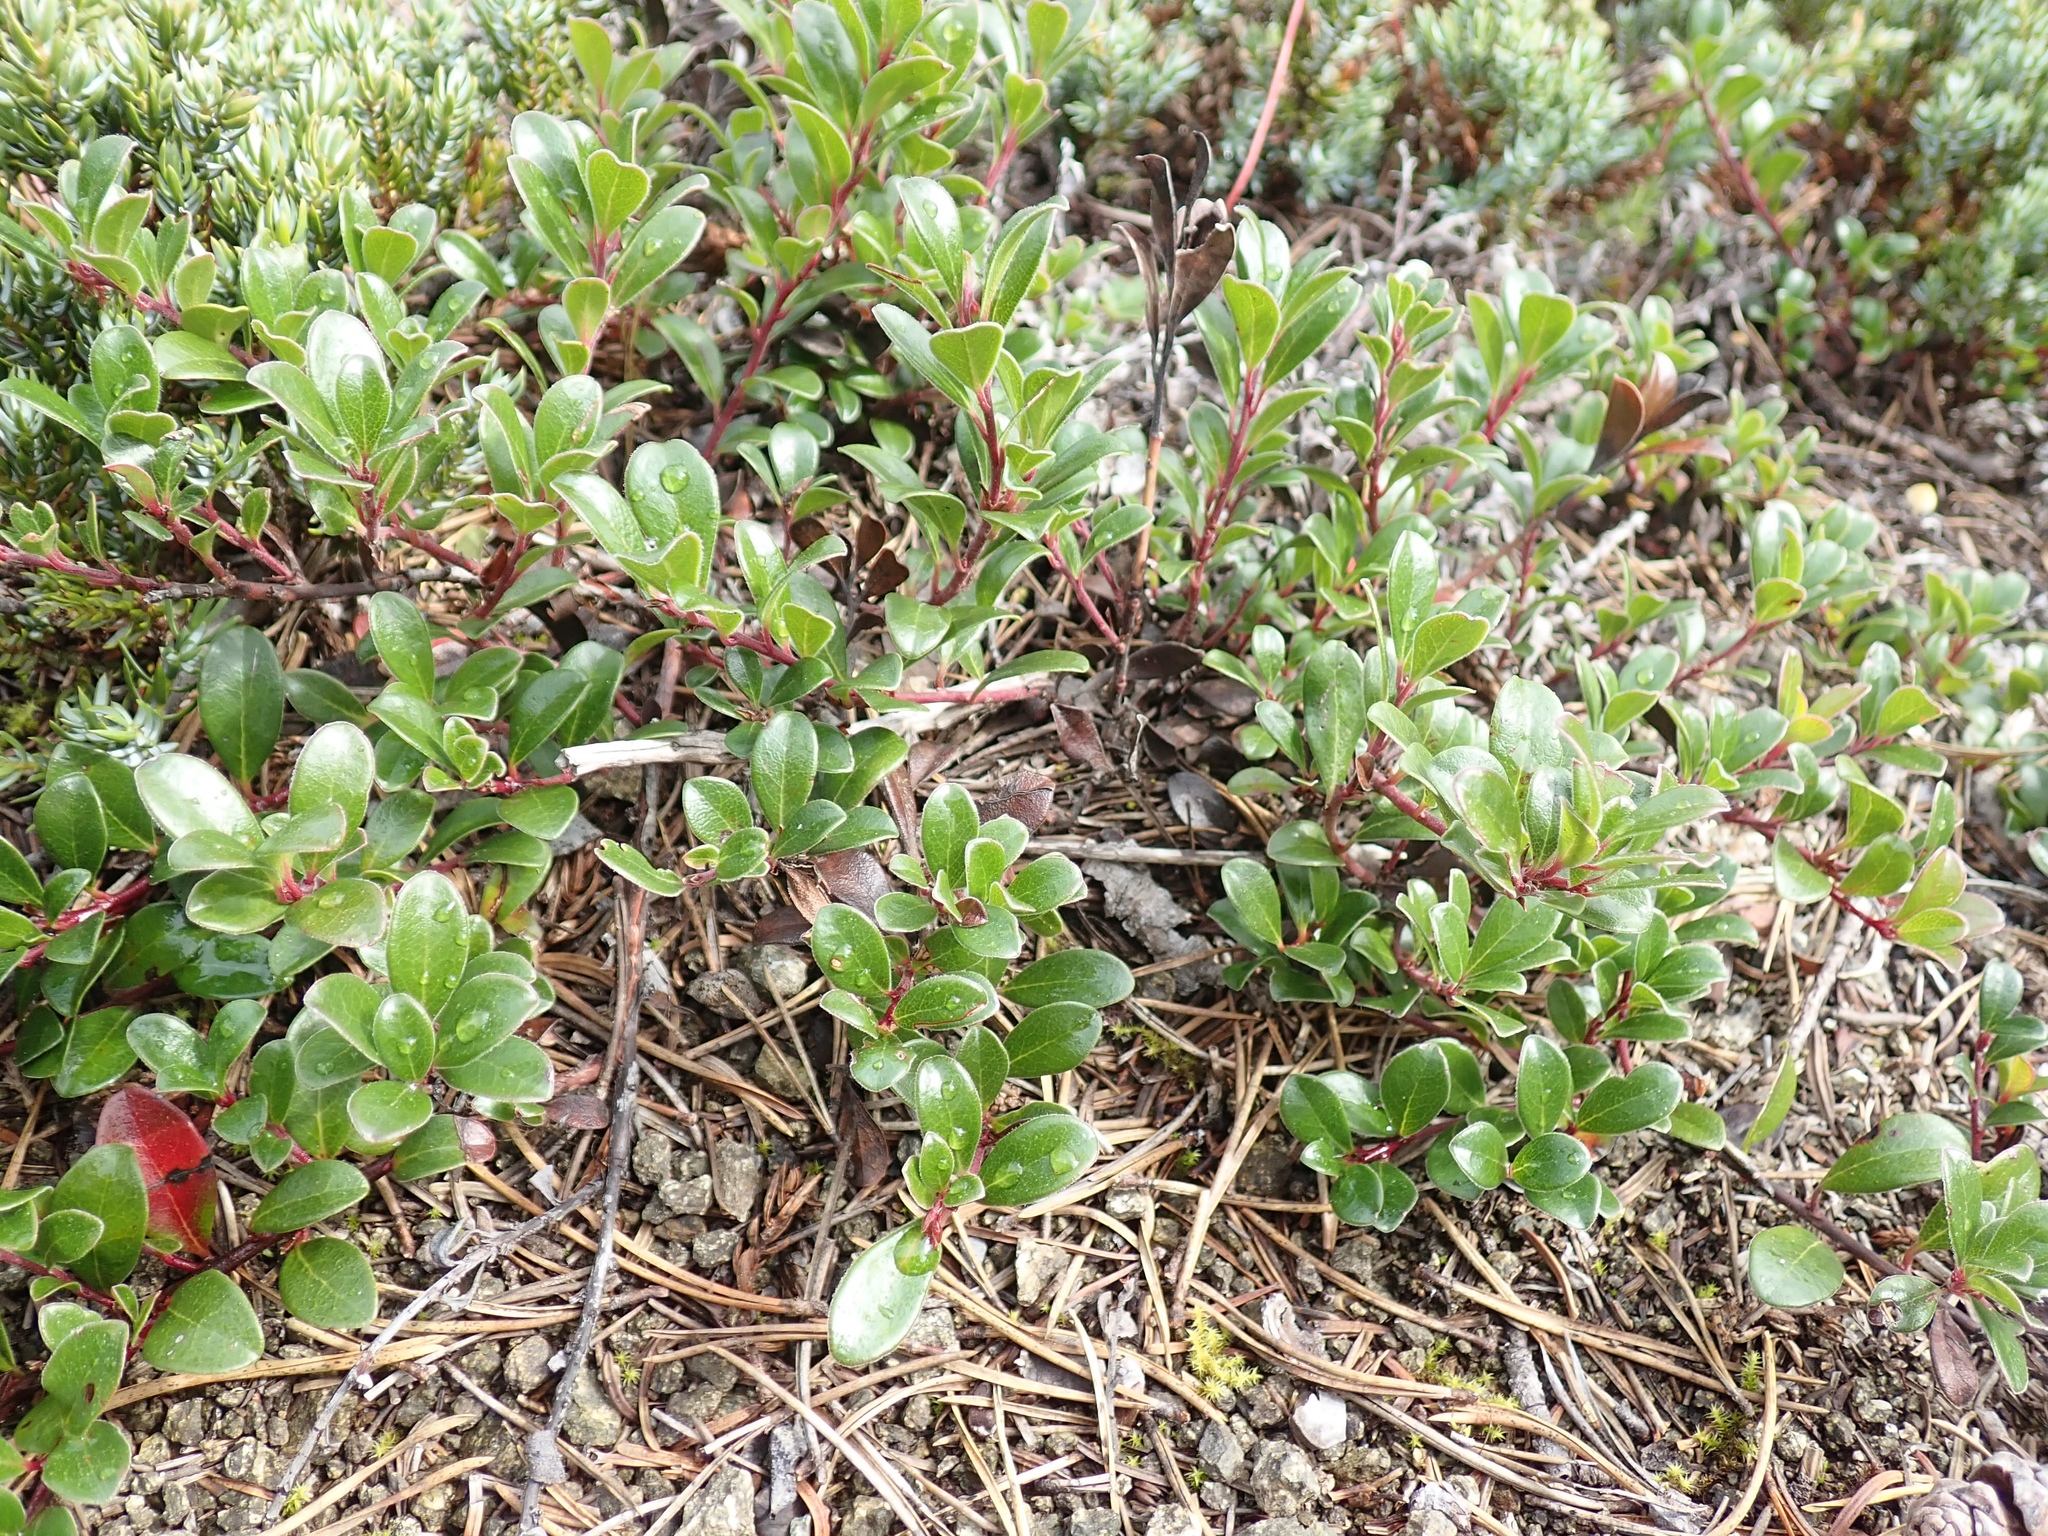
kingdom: Plantae
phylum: Tracheophyta
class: Magnoliopsida
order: Ericales
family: Ericaceae
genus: Arctostaphylos
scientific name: Arctostaphylos uva-ursi
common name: Bearberry
